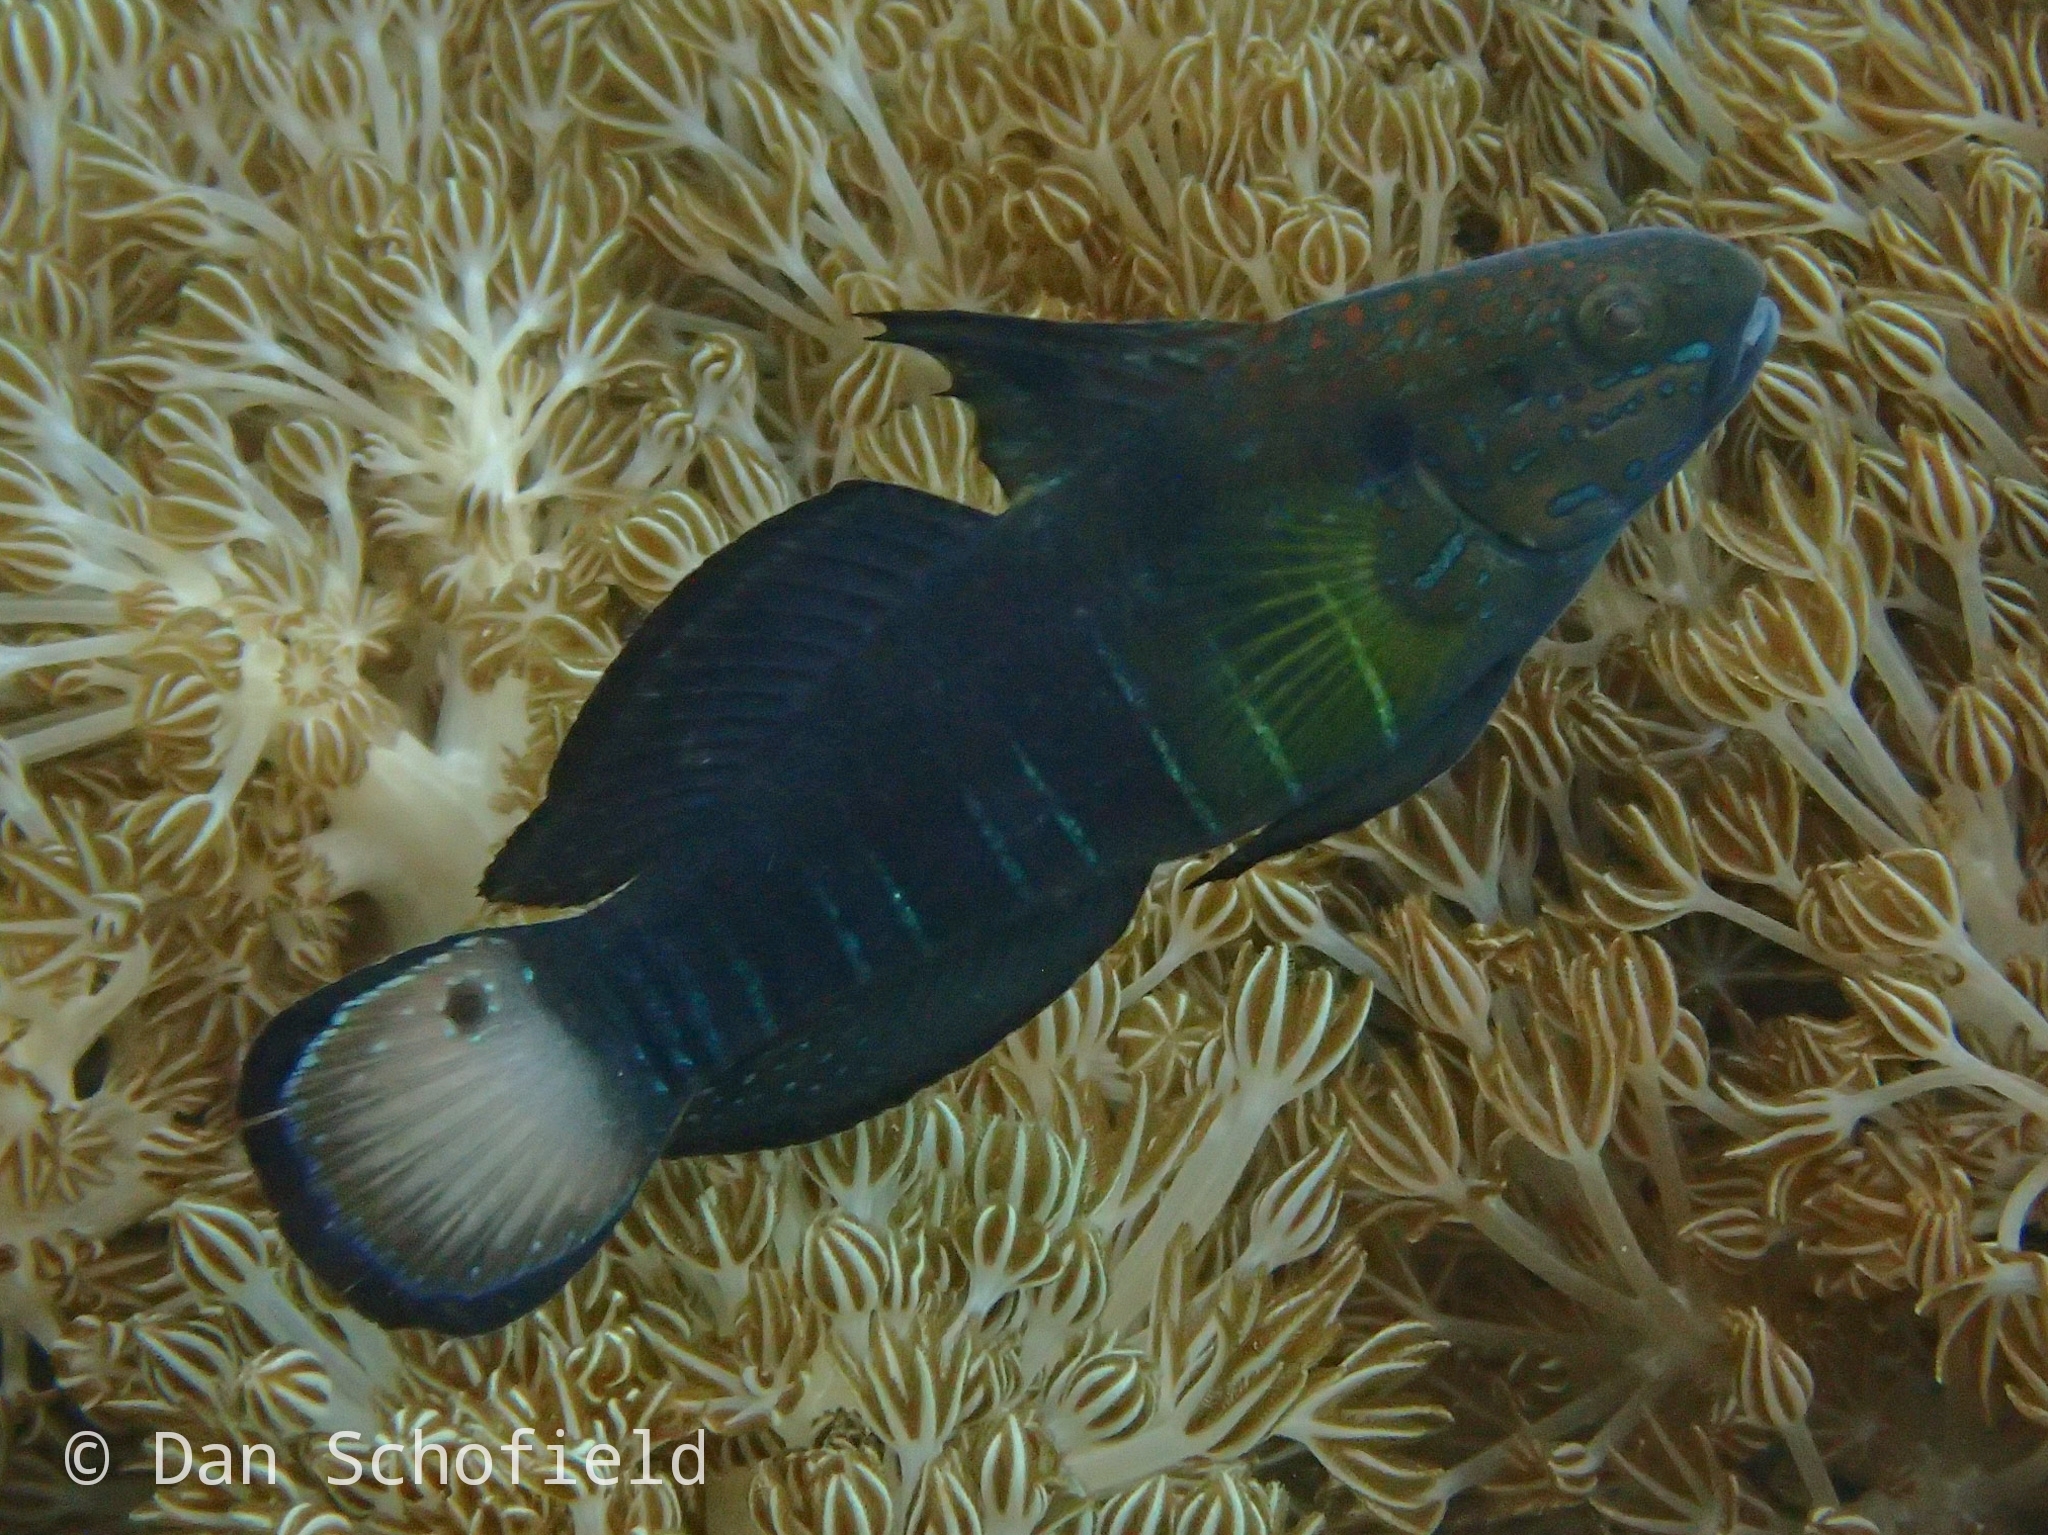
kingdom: Animalia
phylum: Chordata
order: Perciformes
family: Gobiidae
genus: Amblygobius
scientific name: Amblygobius phalaena
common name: Banded goby
